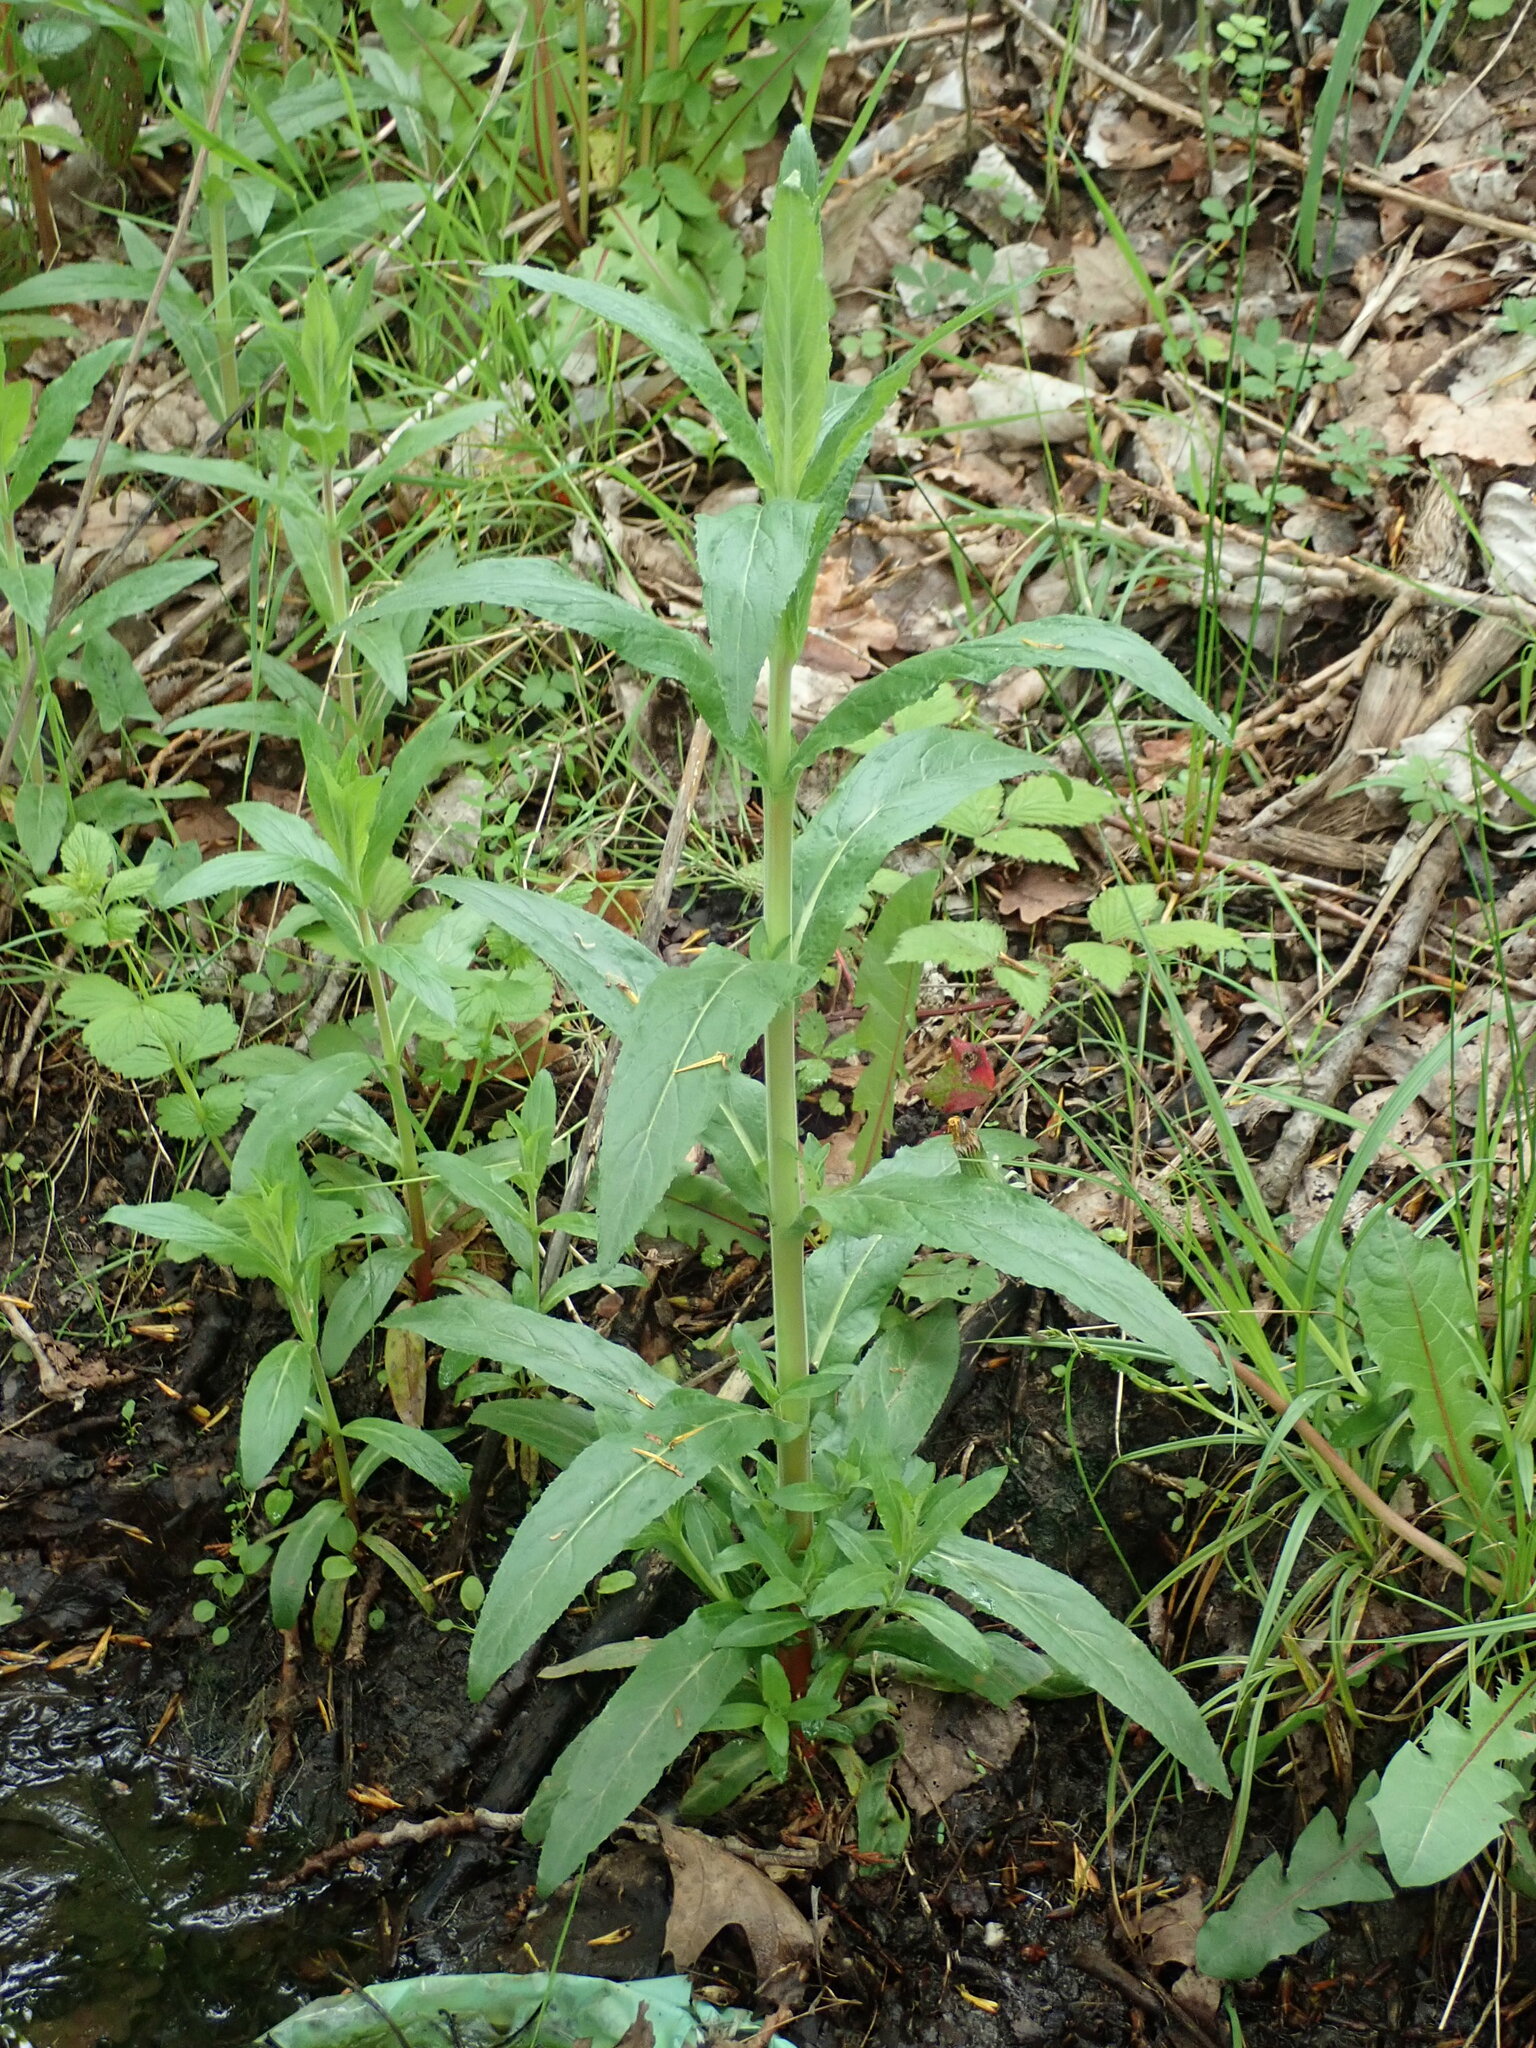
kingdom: Plantae
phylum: Tracheophyta
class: Magnoliopsida
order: Myrtales
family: Onagraceae
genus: Epilobium
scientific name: Epilobium hirsutum
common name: Great willowherb
